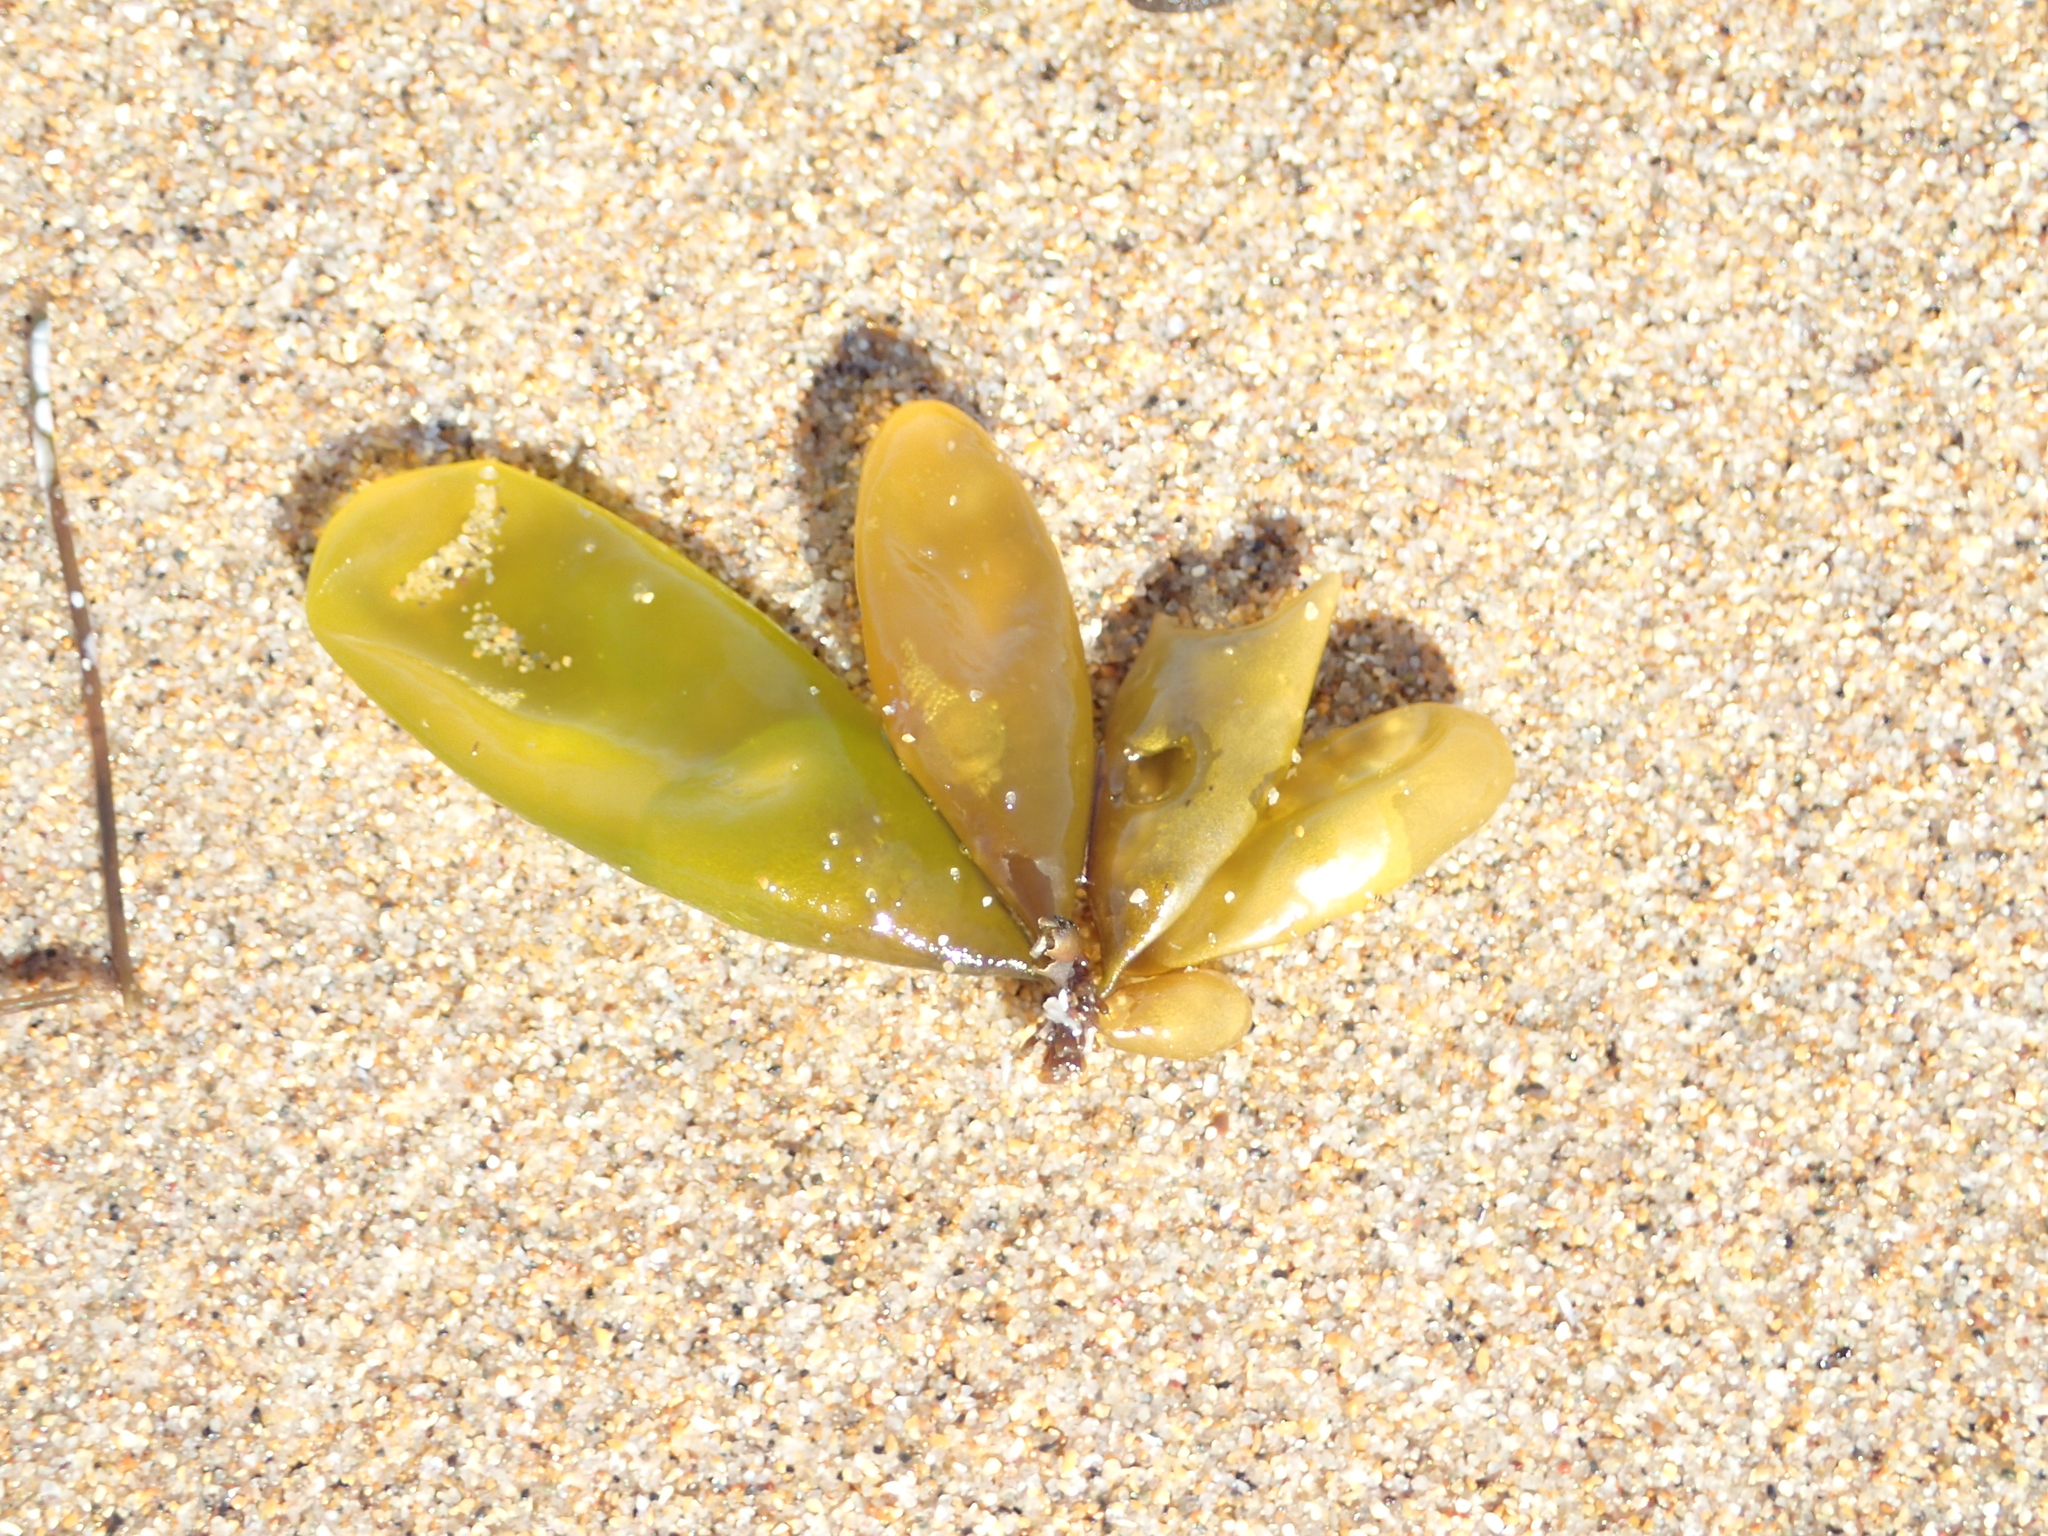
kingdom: Plantae
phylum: Rhodophyta
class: Florideophyceae
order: Palmariales
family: Palmariaceae
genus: Halosaccion
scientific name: Halosaccion glandiforme
